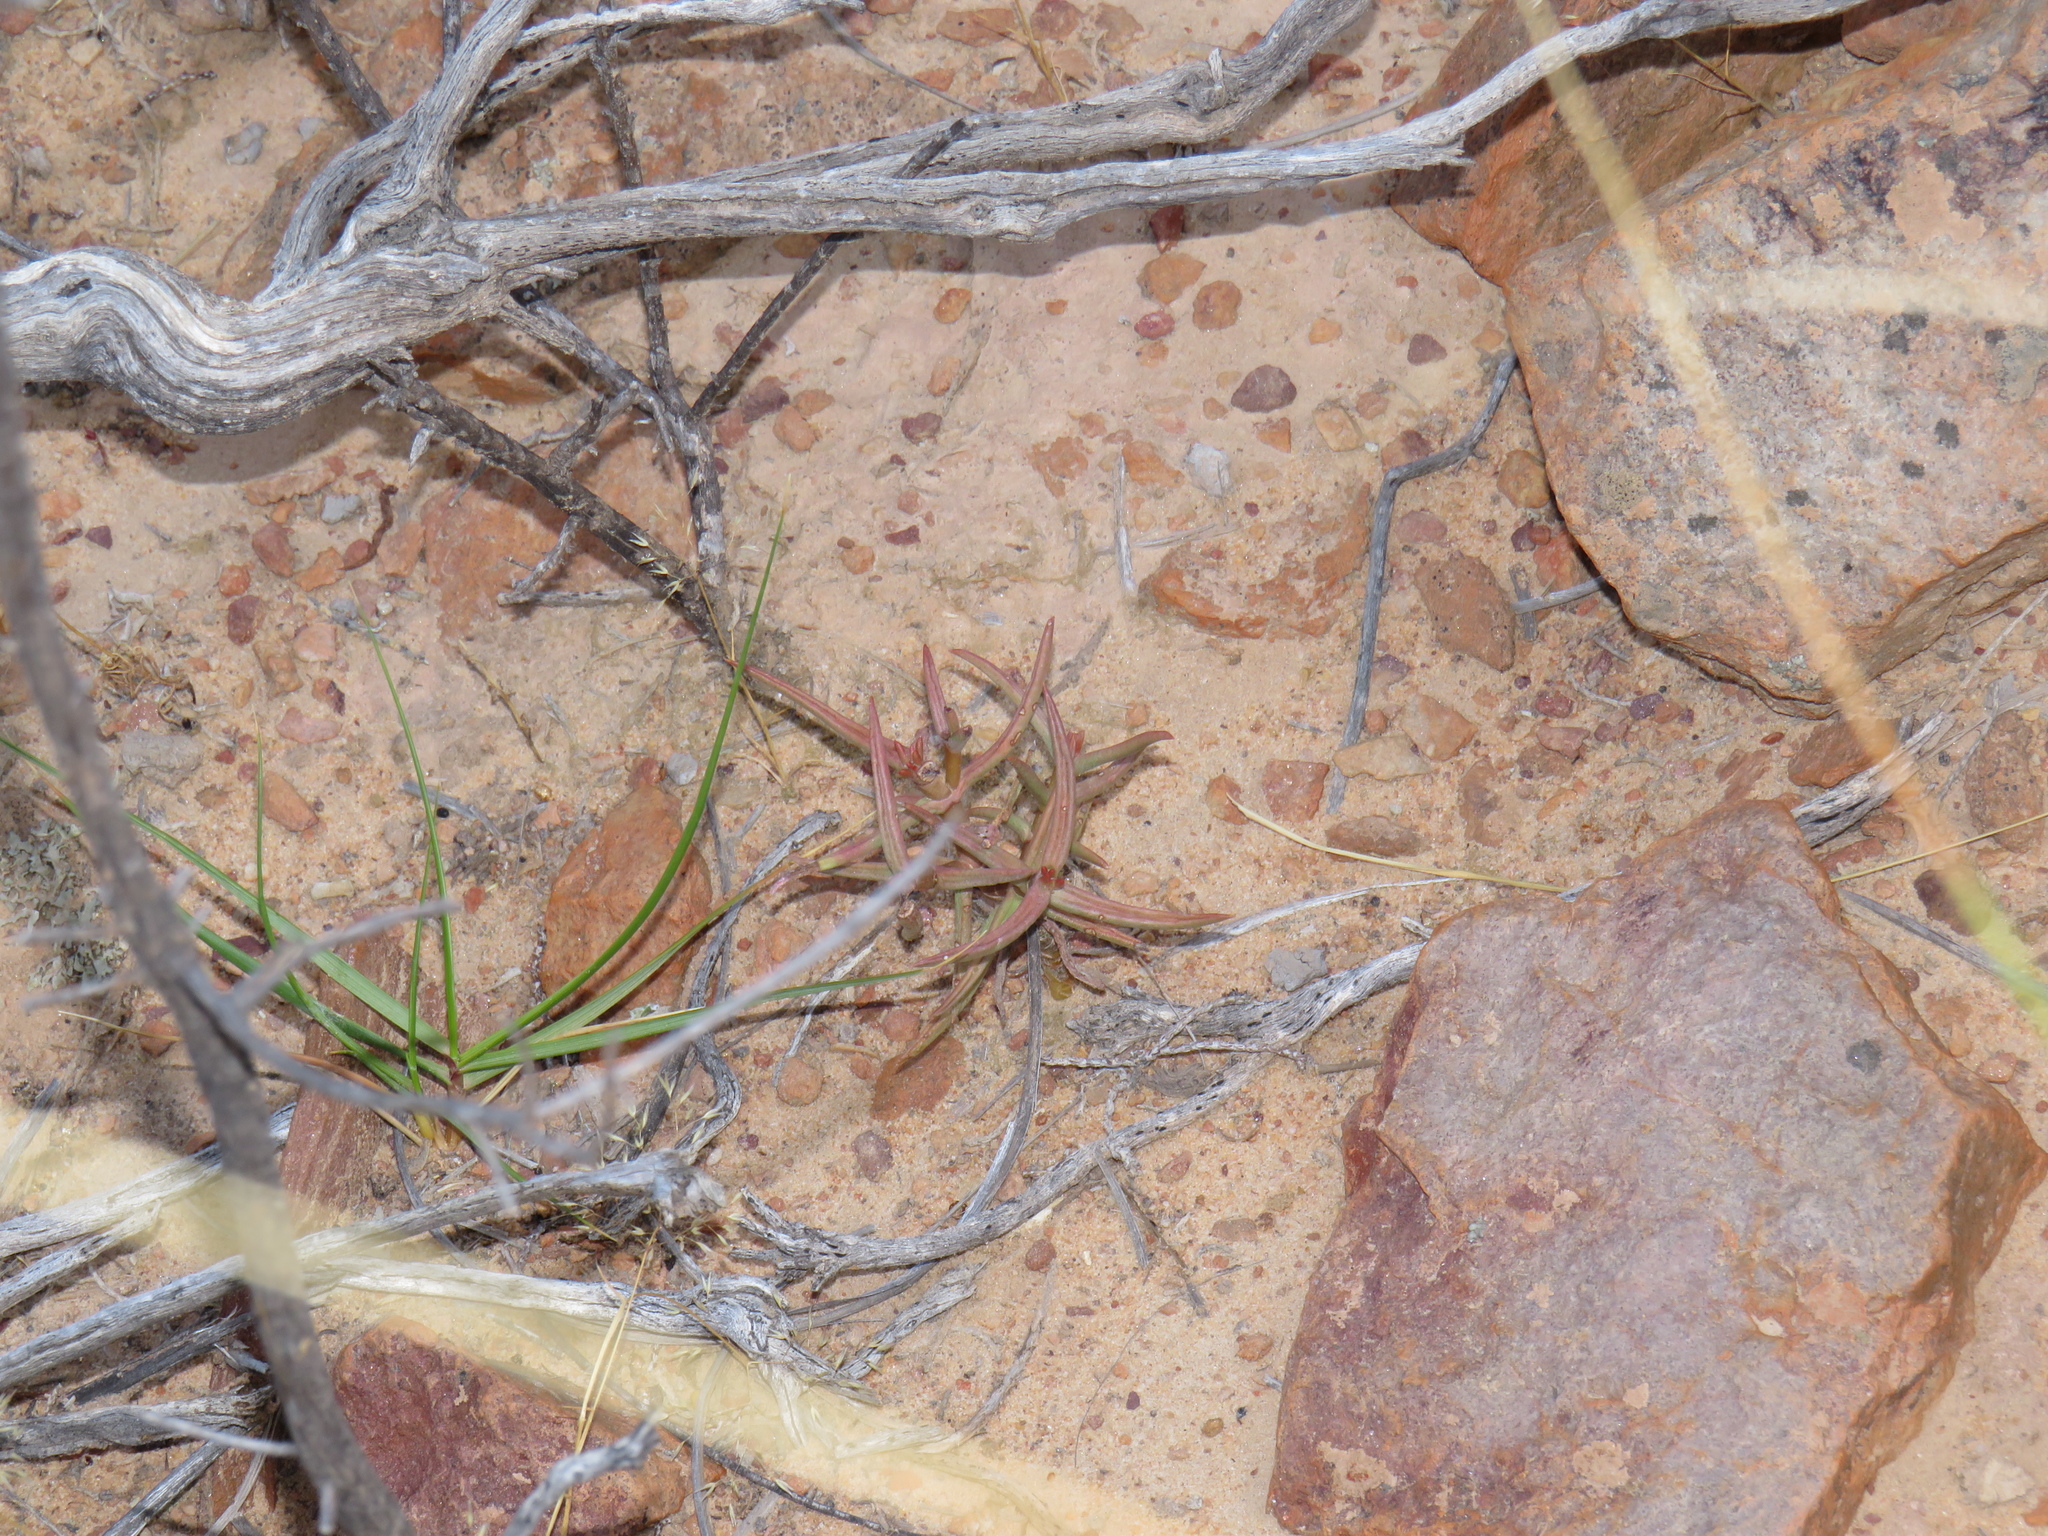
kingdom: Plantae
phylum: Tracheophyta
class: Magnoliopsida
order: Saxifragales
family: Crassulaceae
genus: Crassula
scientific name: Crassula tetragona
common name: Pygmyweed
